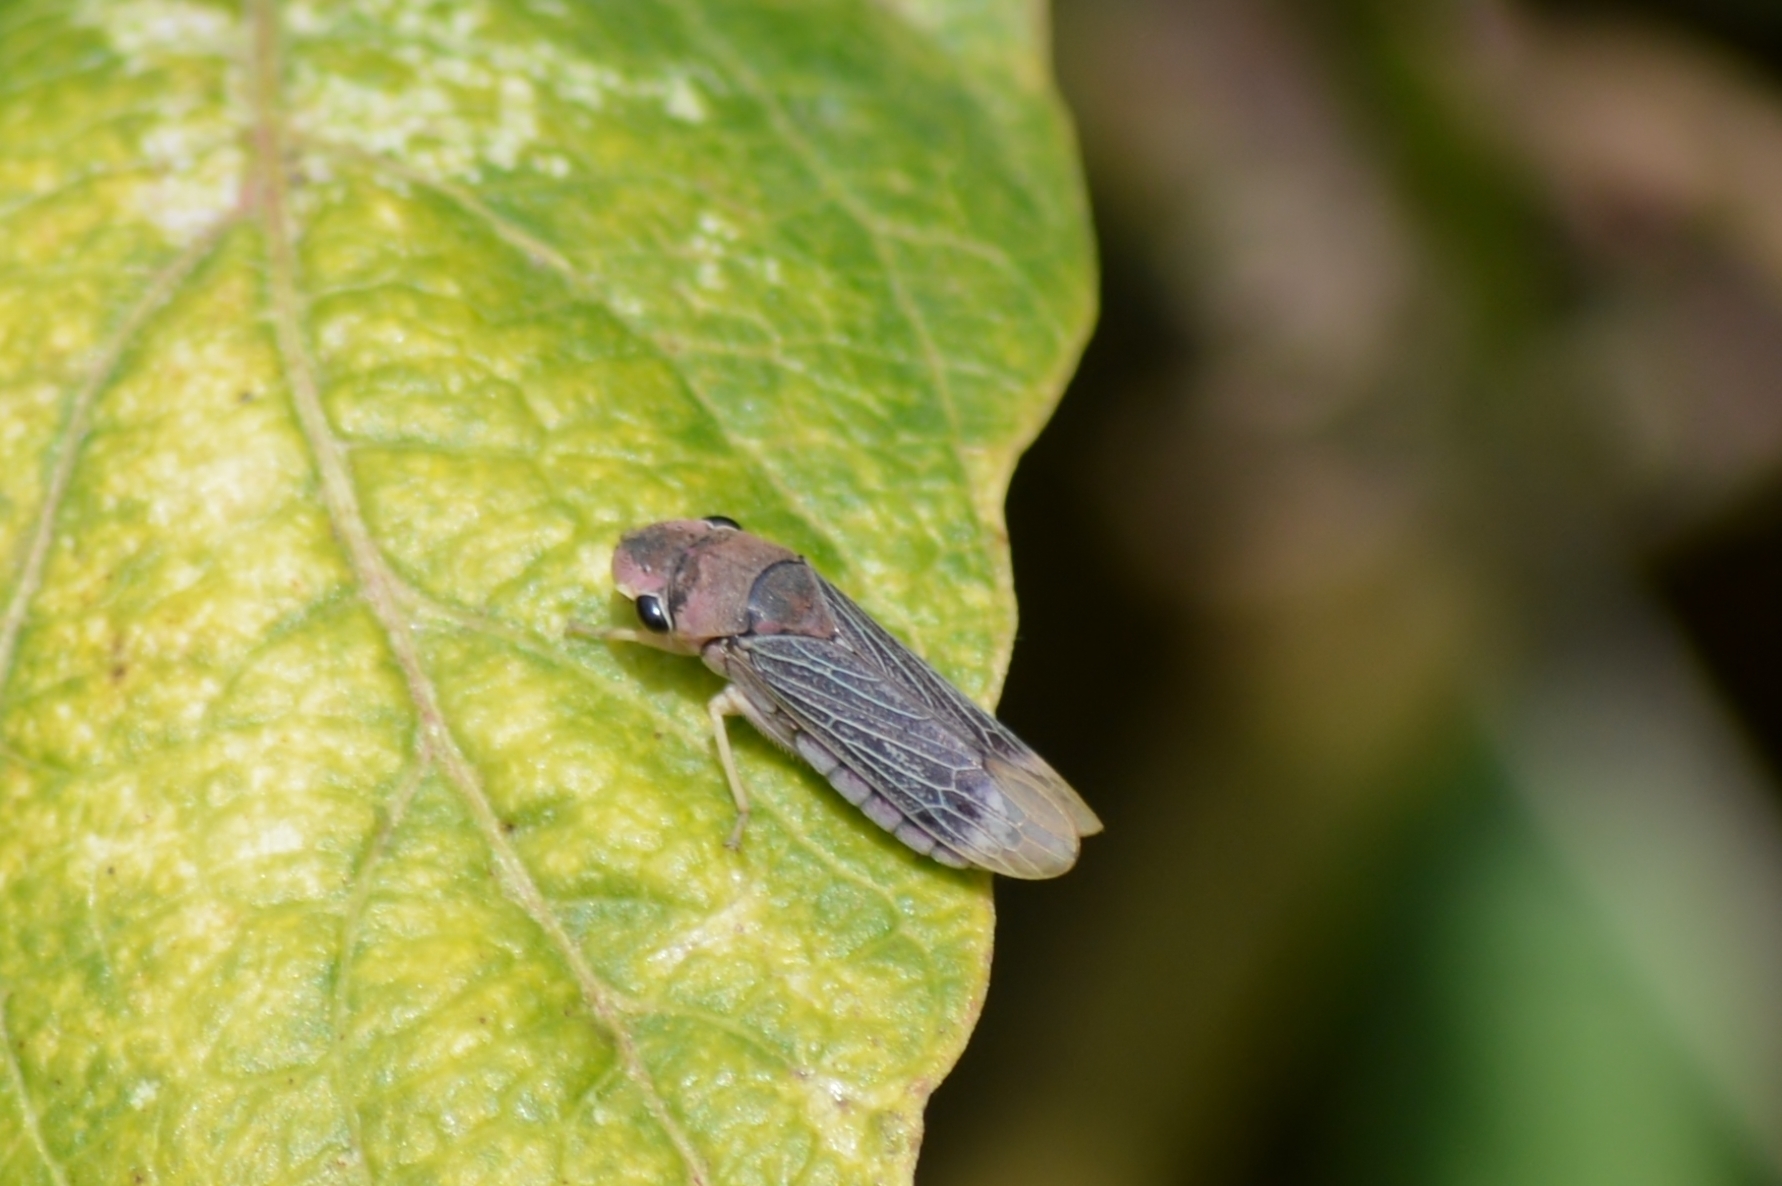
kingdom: Animalia
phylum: Arthropoda
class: Insecta
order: Hemiptera
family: Cicadellidae
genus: Oncometopia
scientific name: Oncometopia facialis
